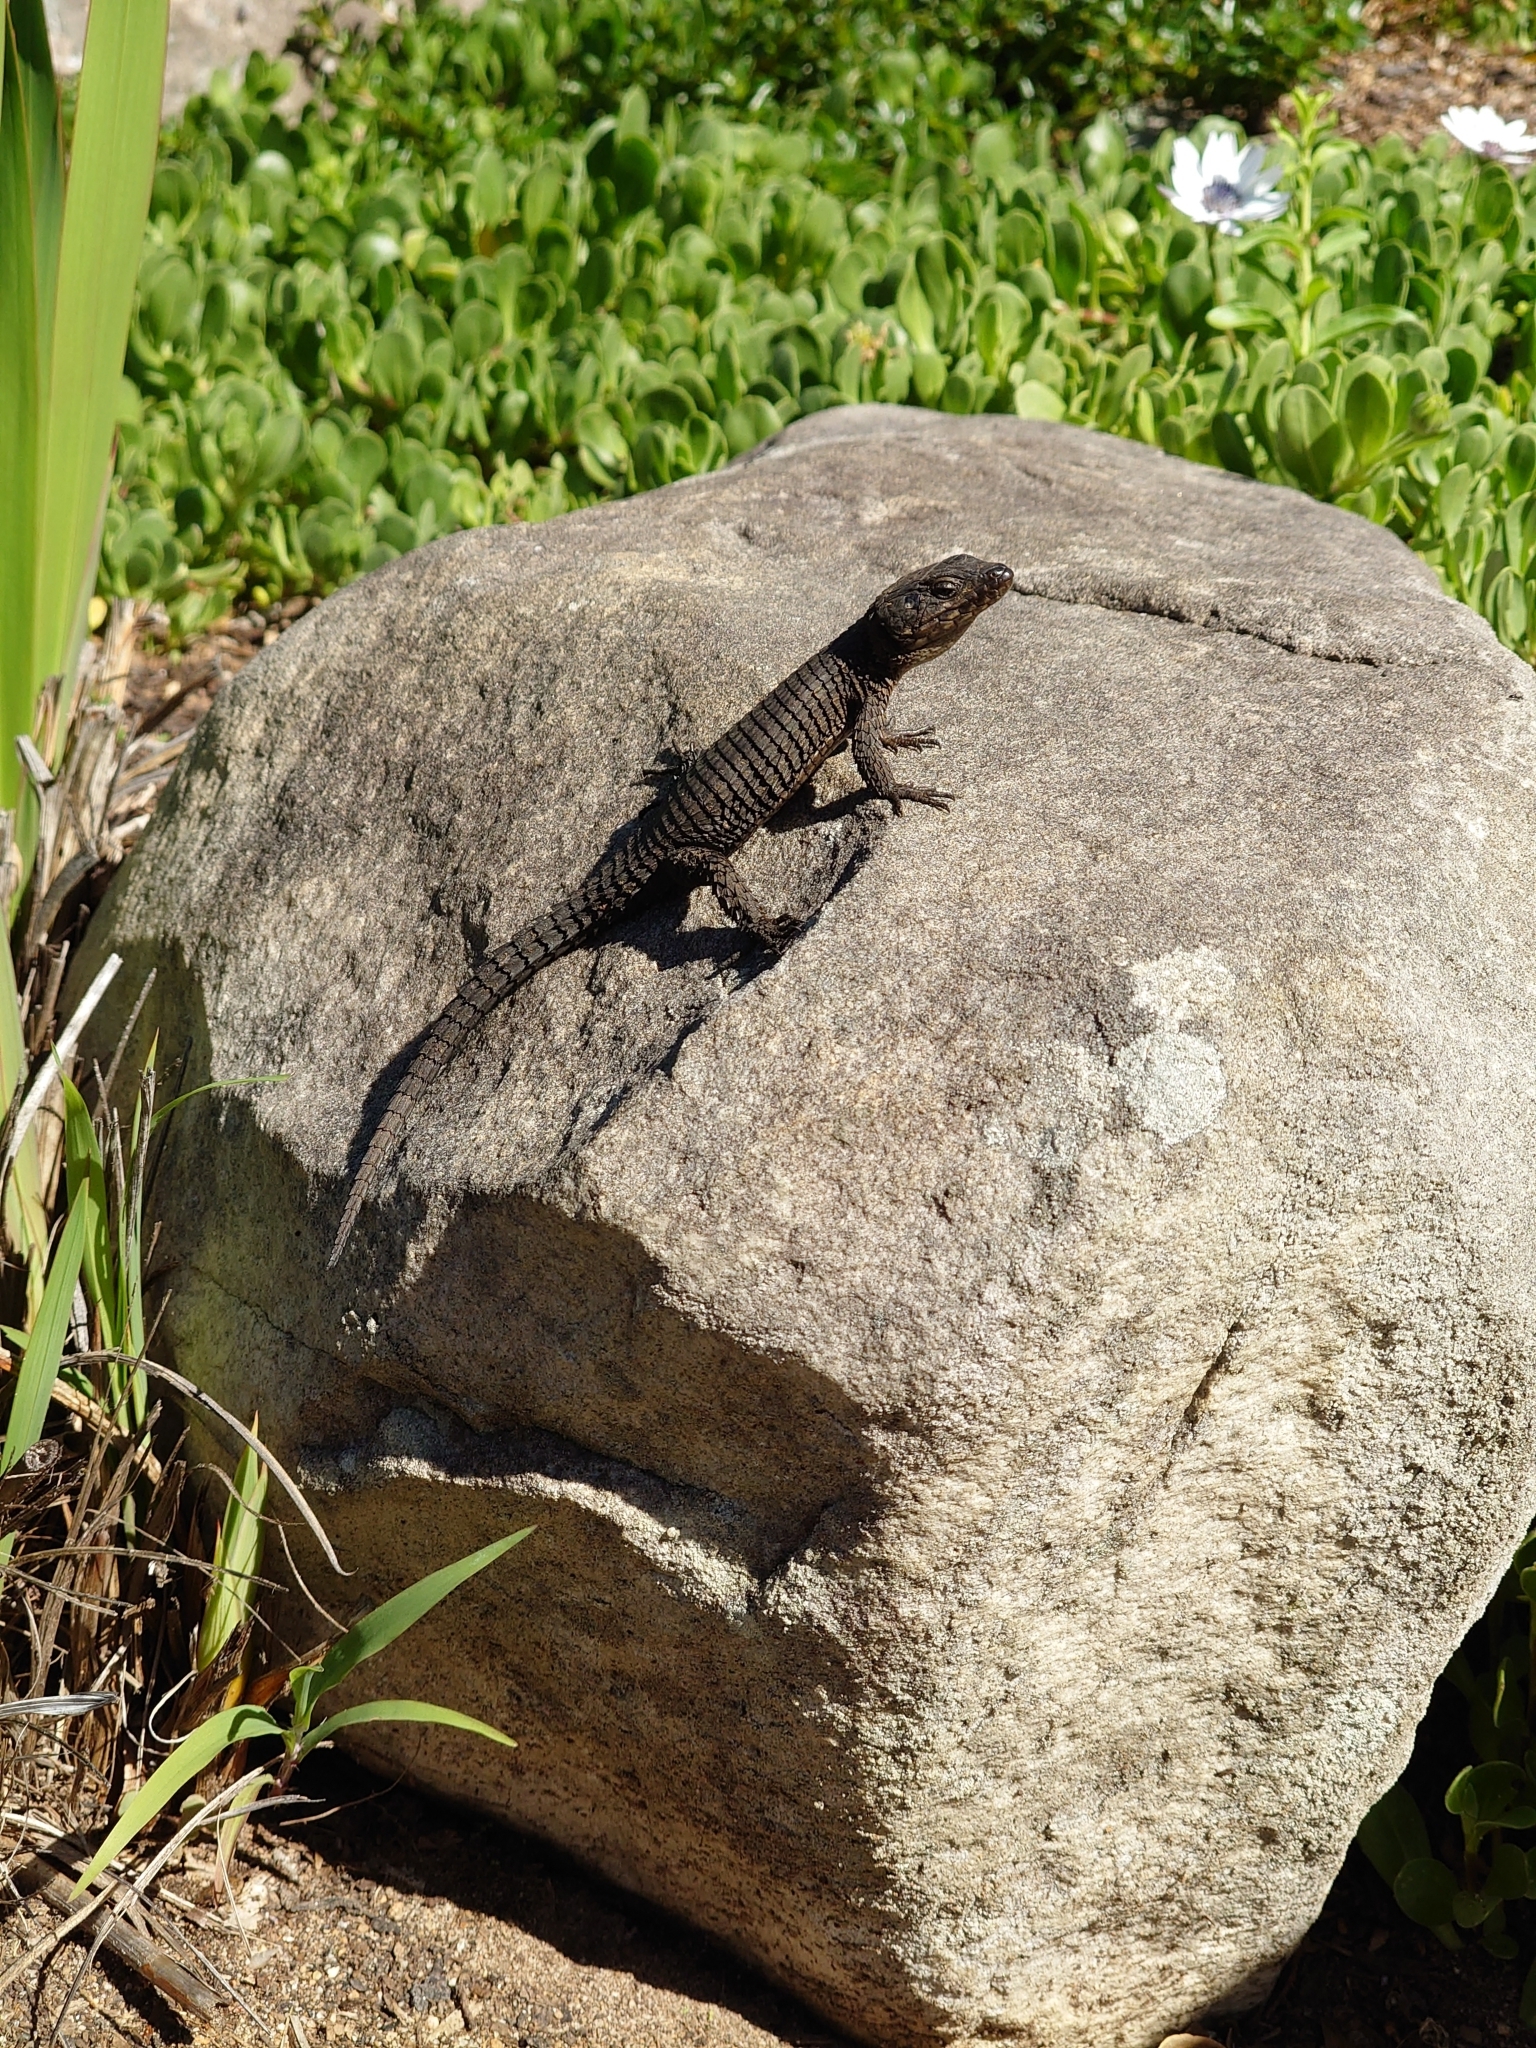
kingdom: Animalia
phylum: Chordata
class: Squamata
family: Cordylidae
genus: Cordylus
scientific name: Cordylus niger
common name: Black girdled lizard
